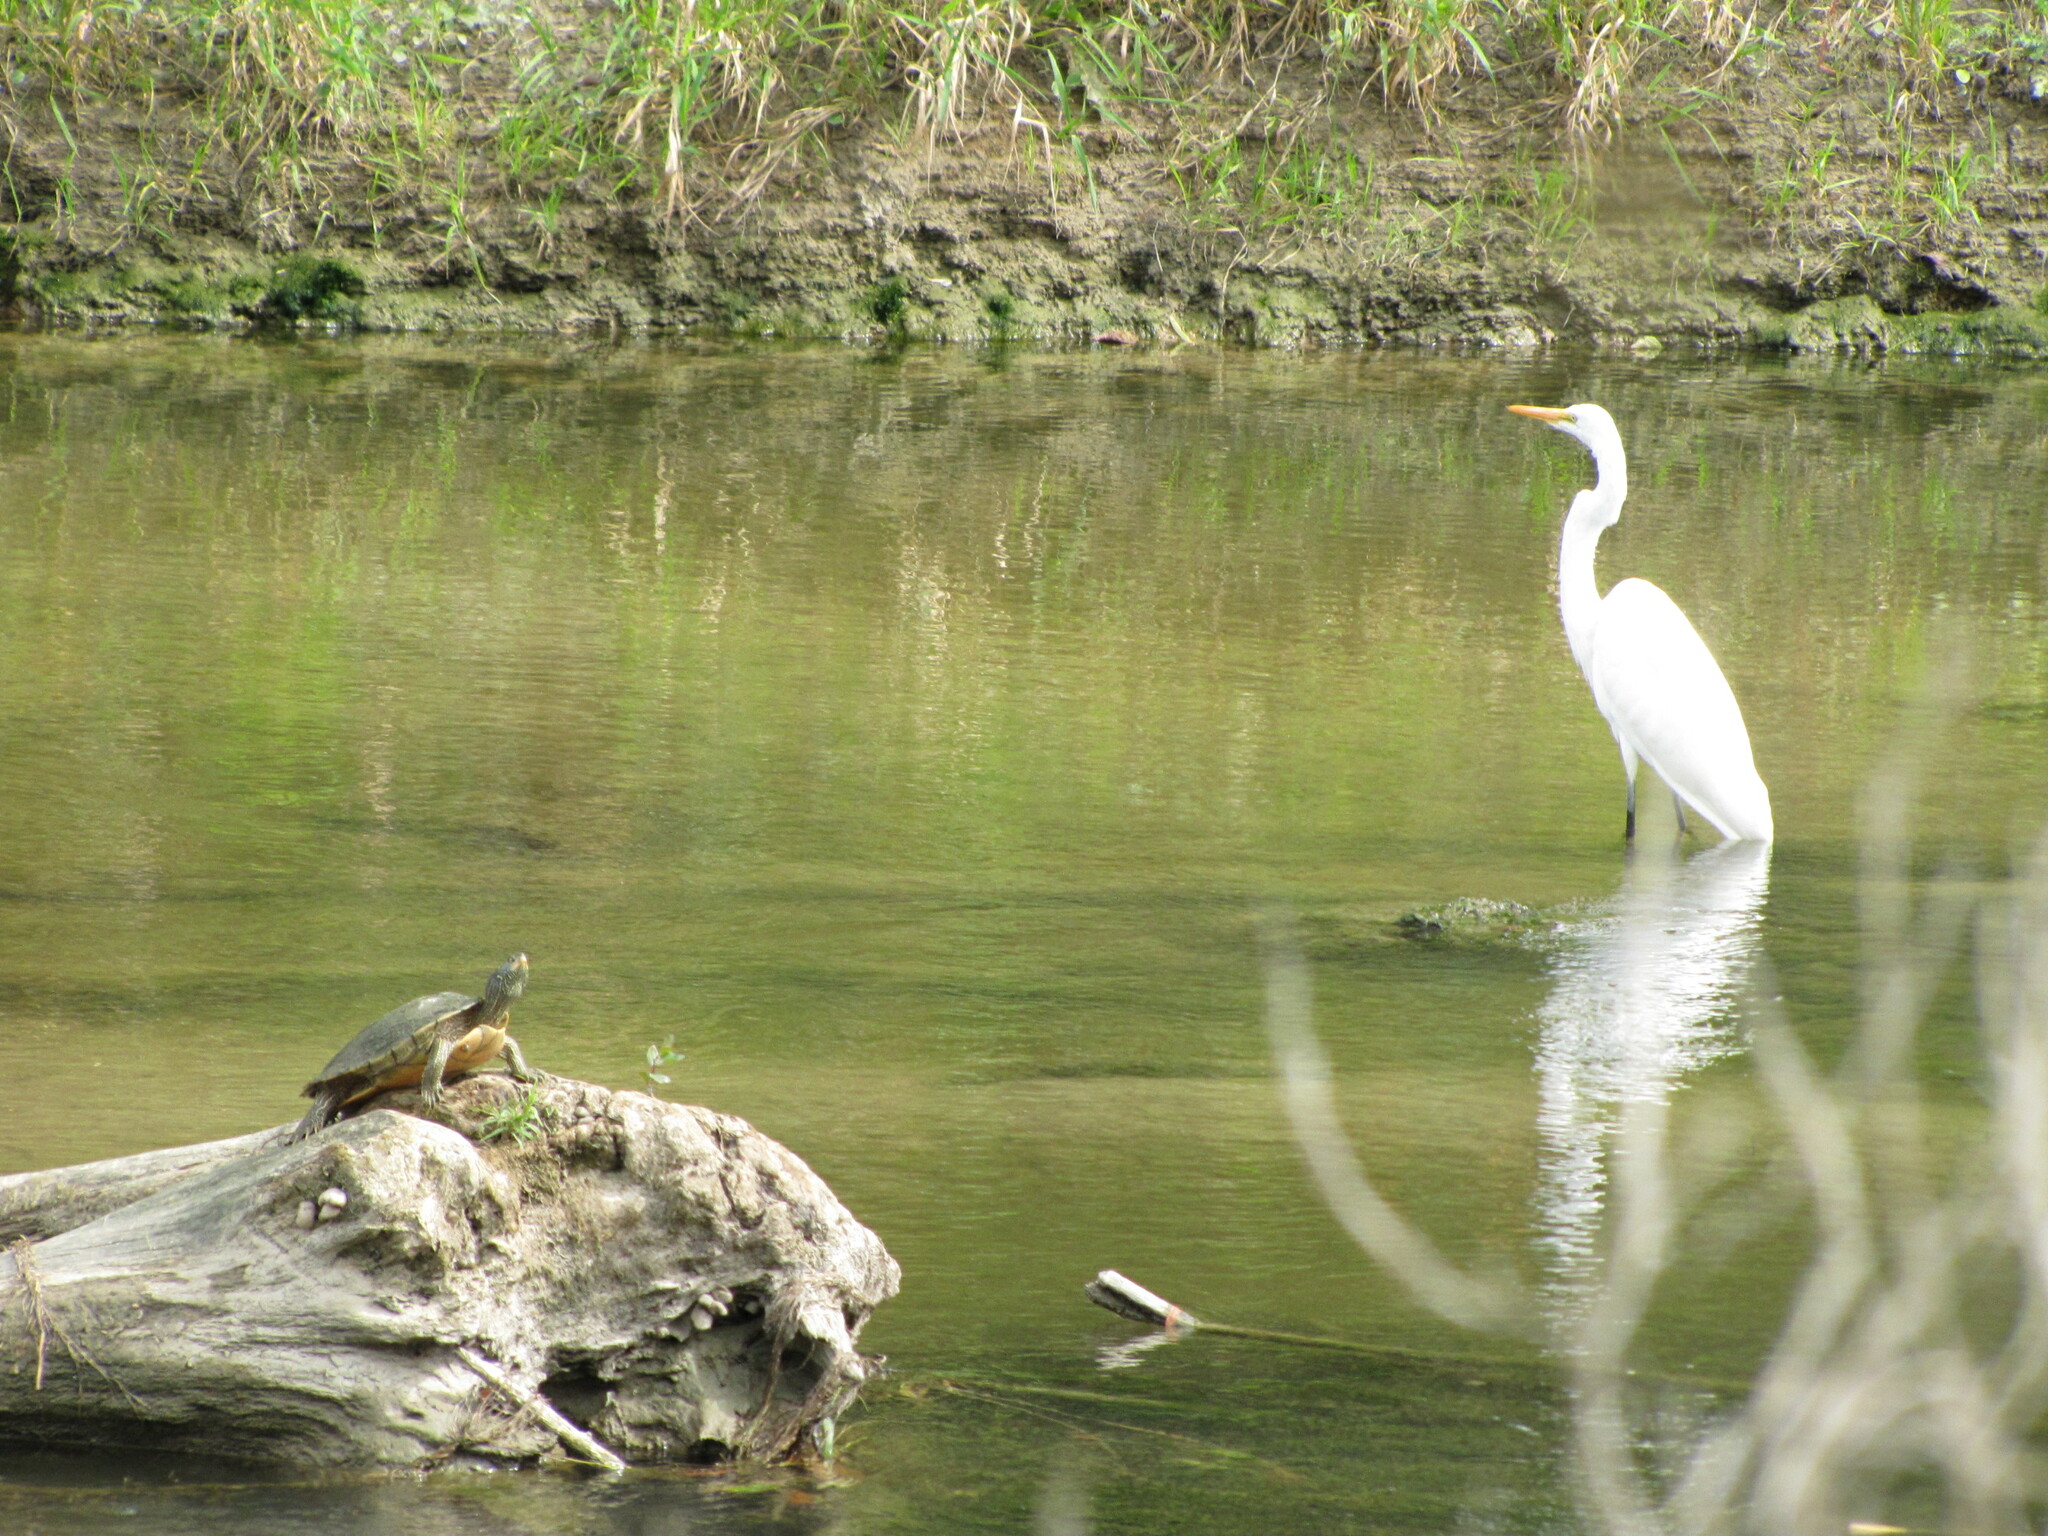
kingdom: Animalia
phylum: Chordata
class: Aves
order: Pelecaniformes
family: Ardeidae
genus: Ardea
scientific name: Ardea alba
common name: Great egret
